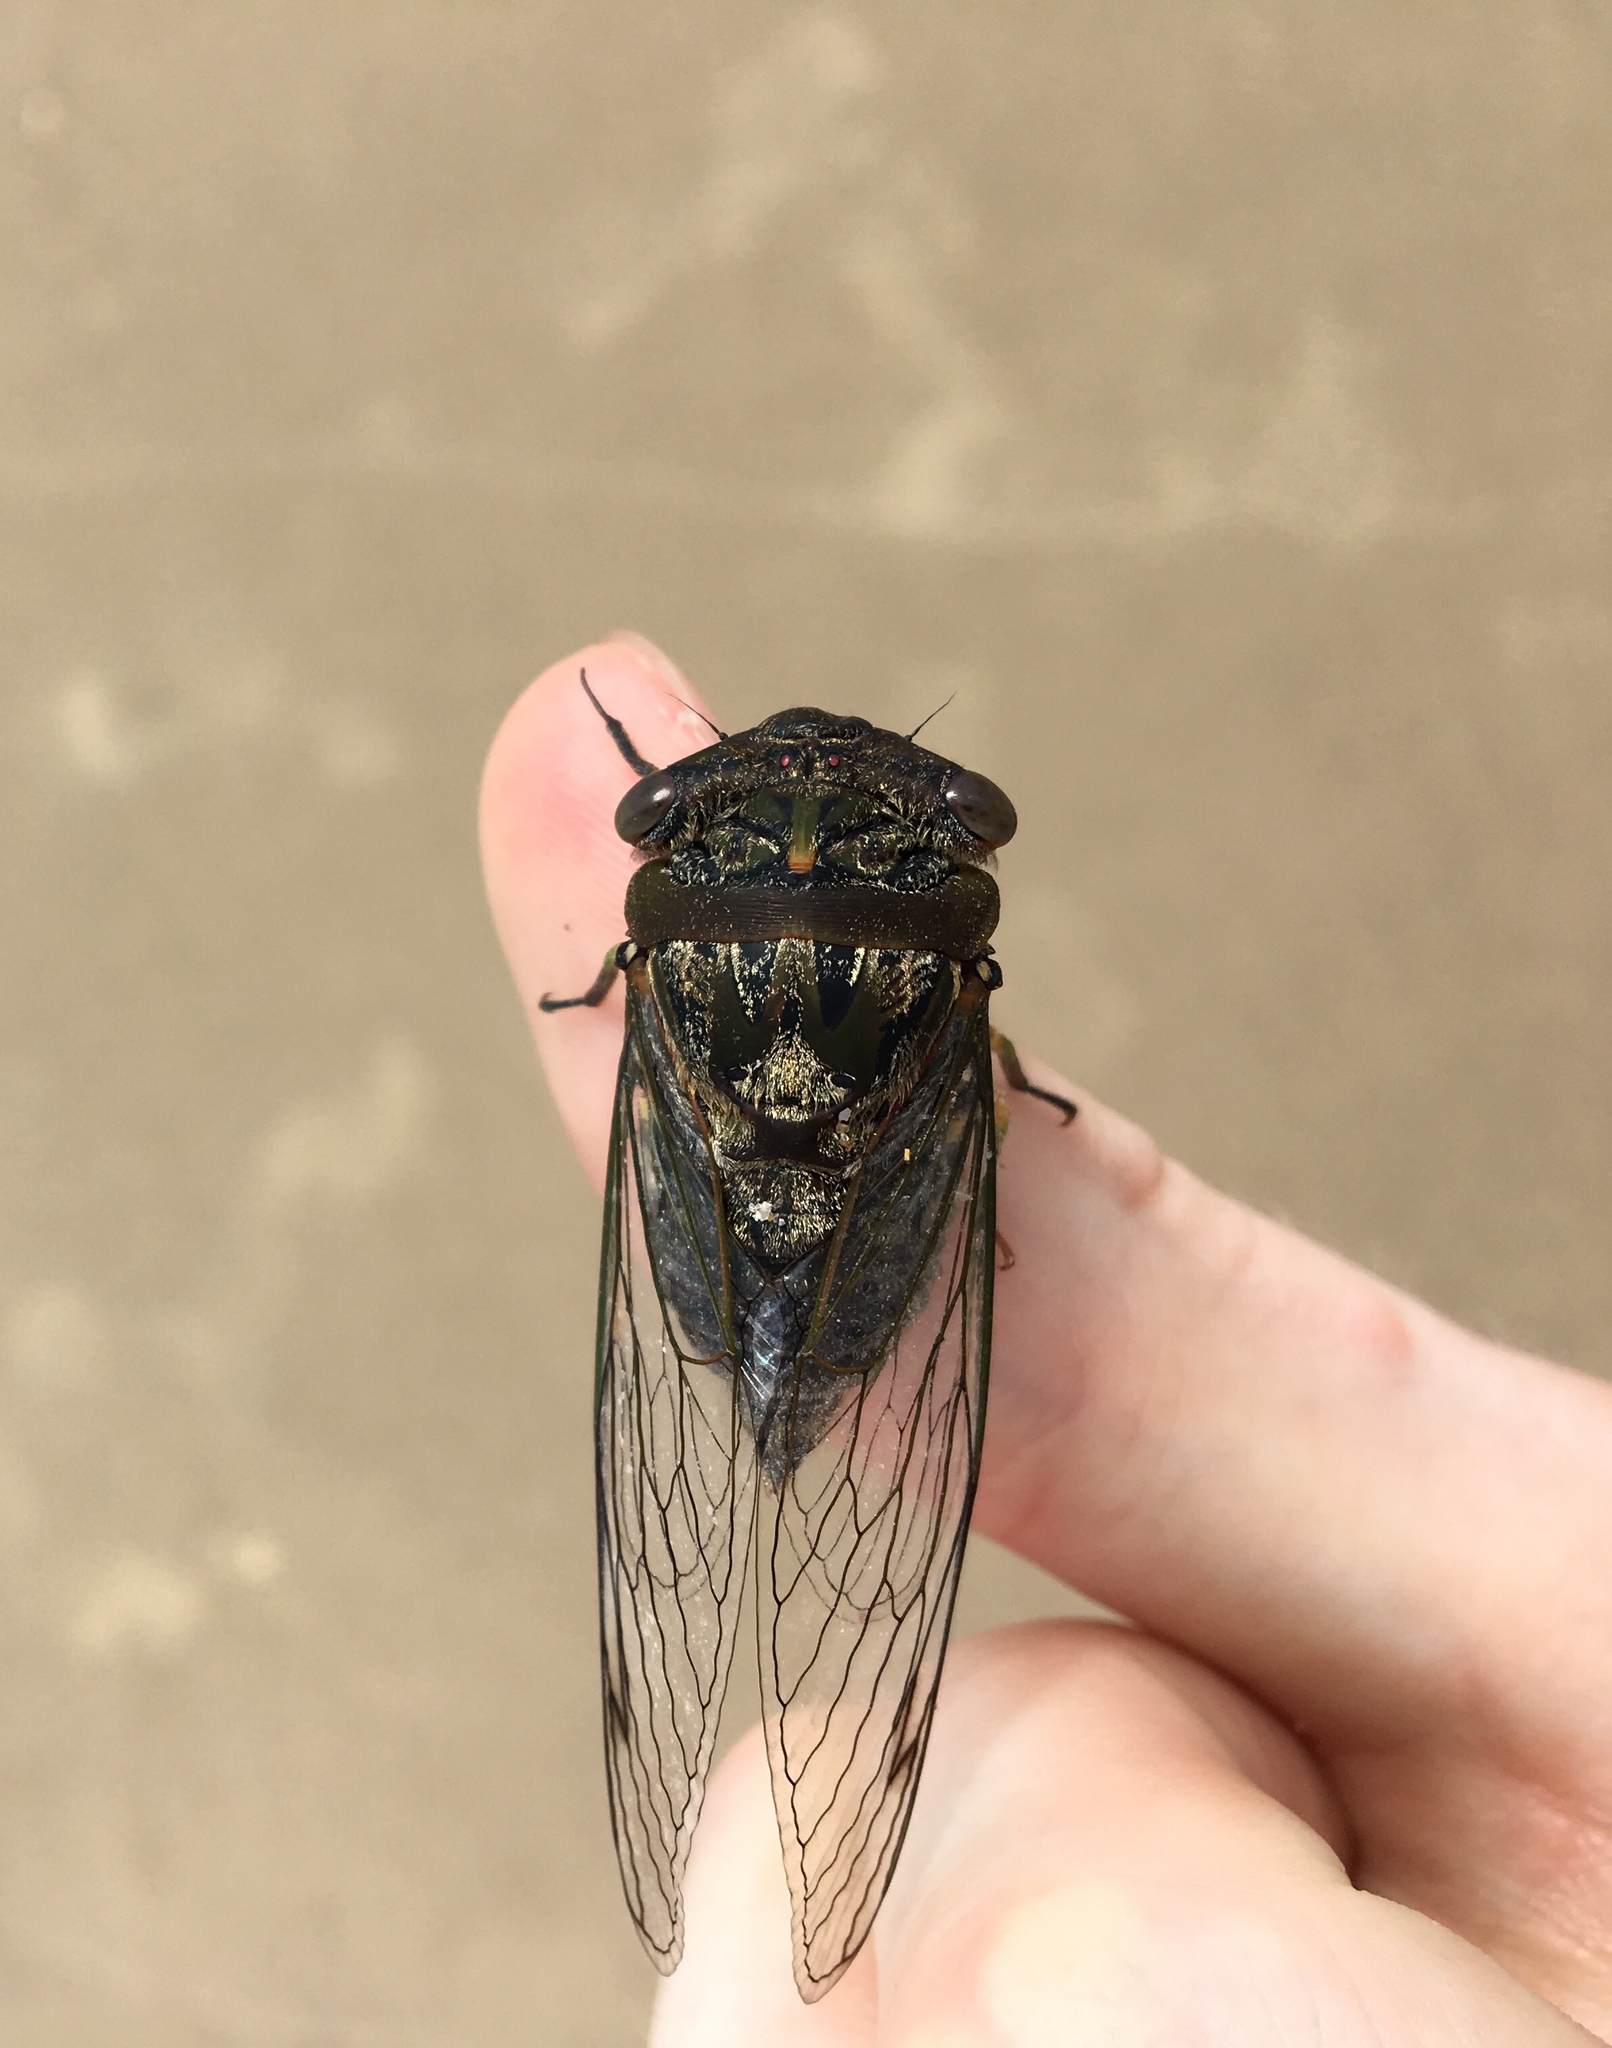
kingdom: Animalia
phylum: Arthropoda
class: Insecta
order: Hemiptera
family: Cicadidae
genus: Psaltoda
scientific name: Psaltoda plaga
